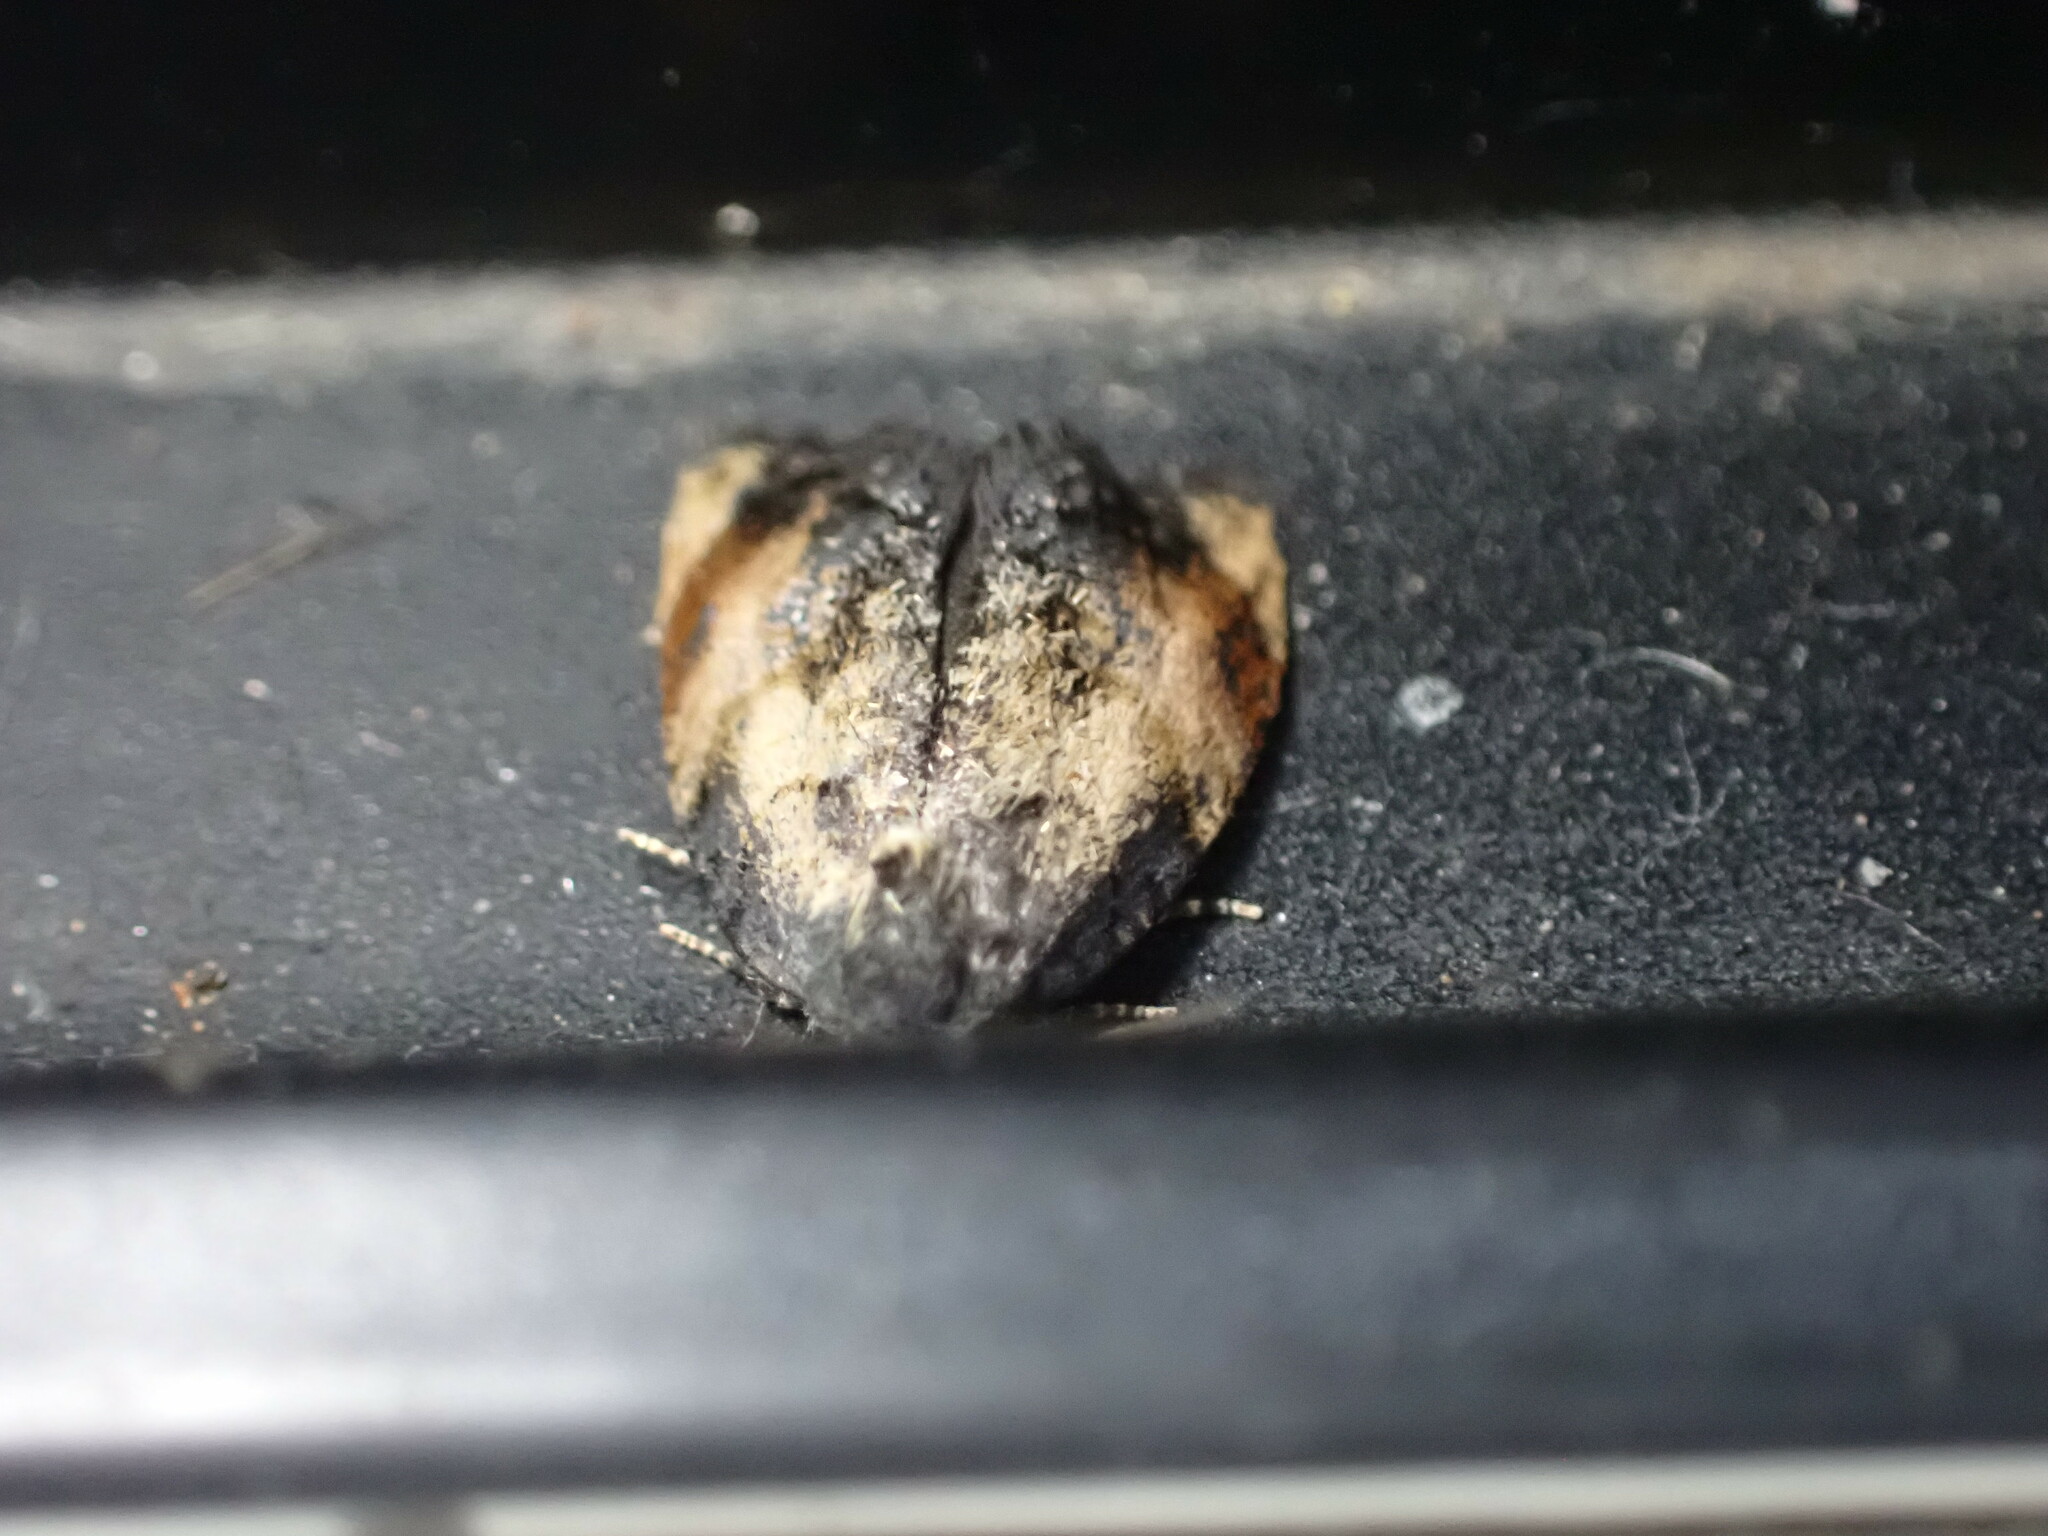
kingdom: Animalia
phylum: Arthropoda
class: Insecta
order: Lepidoptera
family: Tortricidae
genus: Philocryptica
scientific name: Philocryptica polypodii
